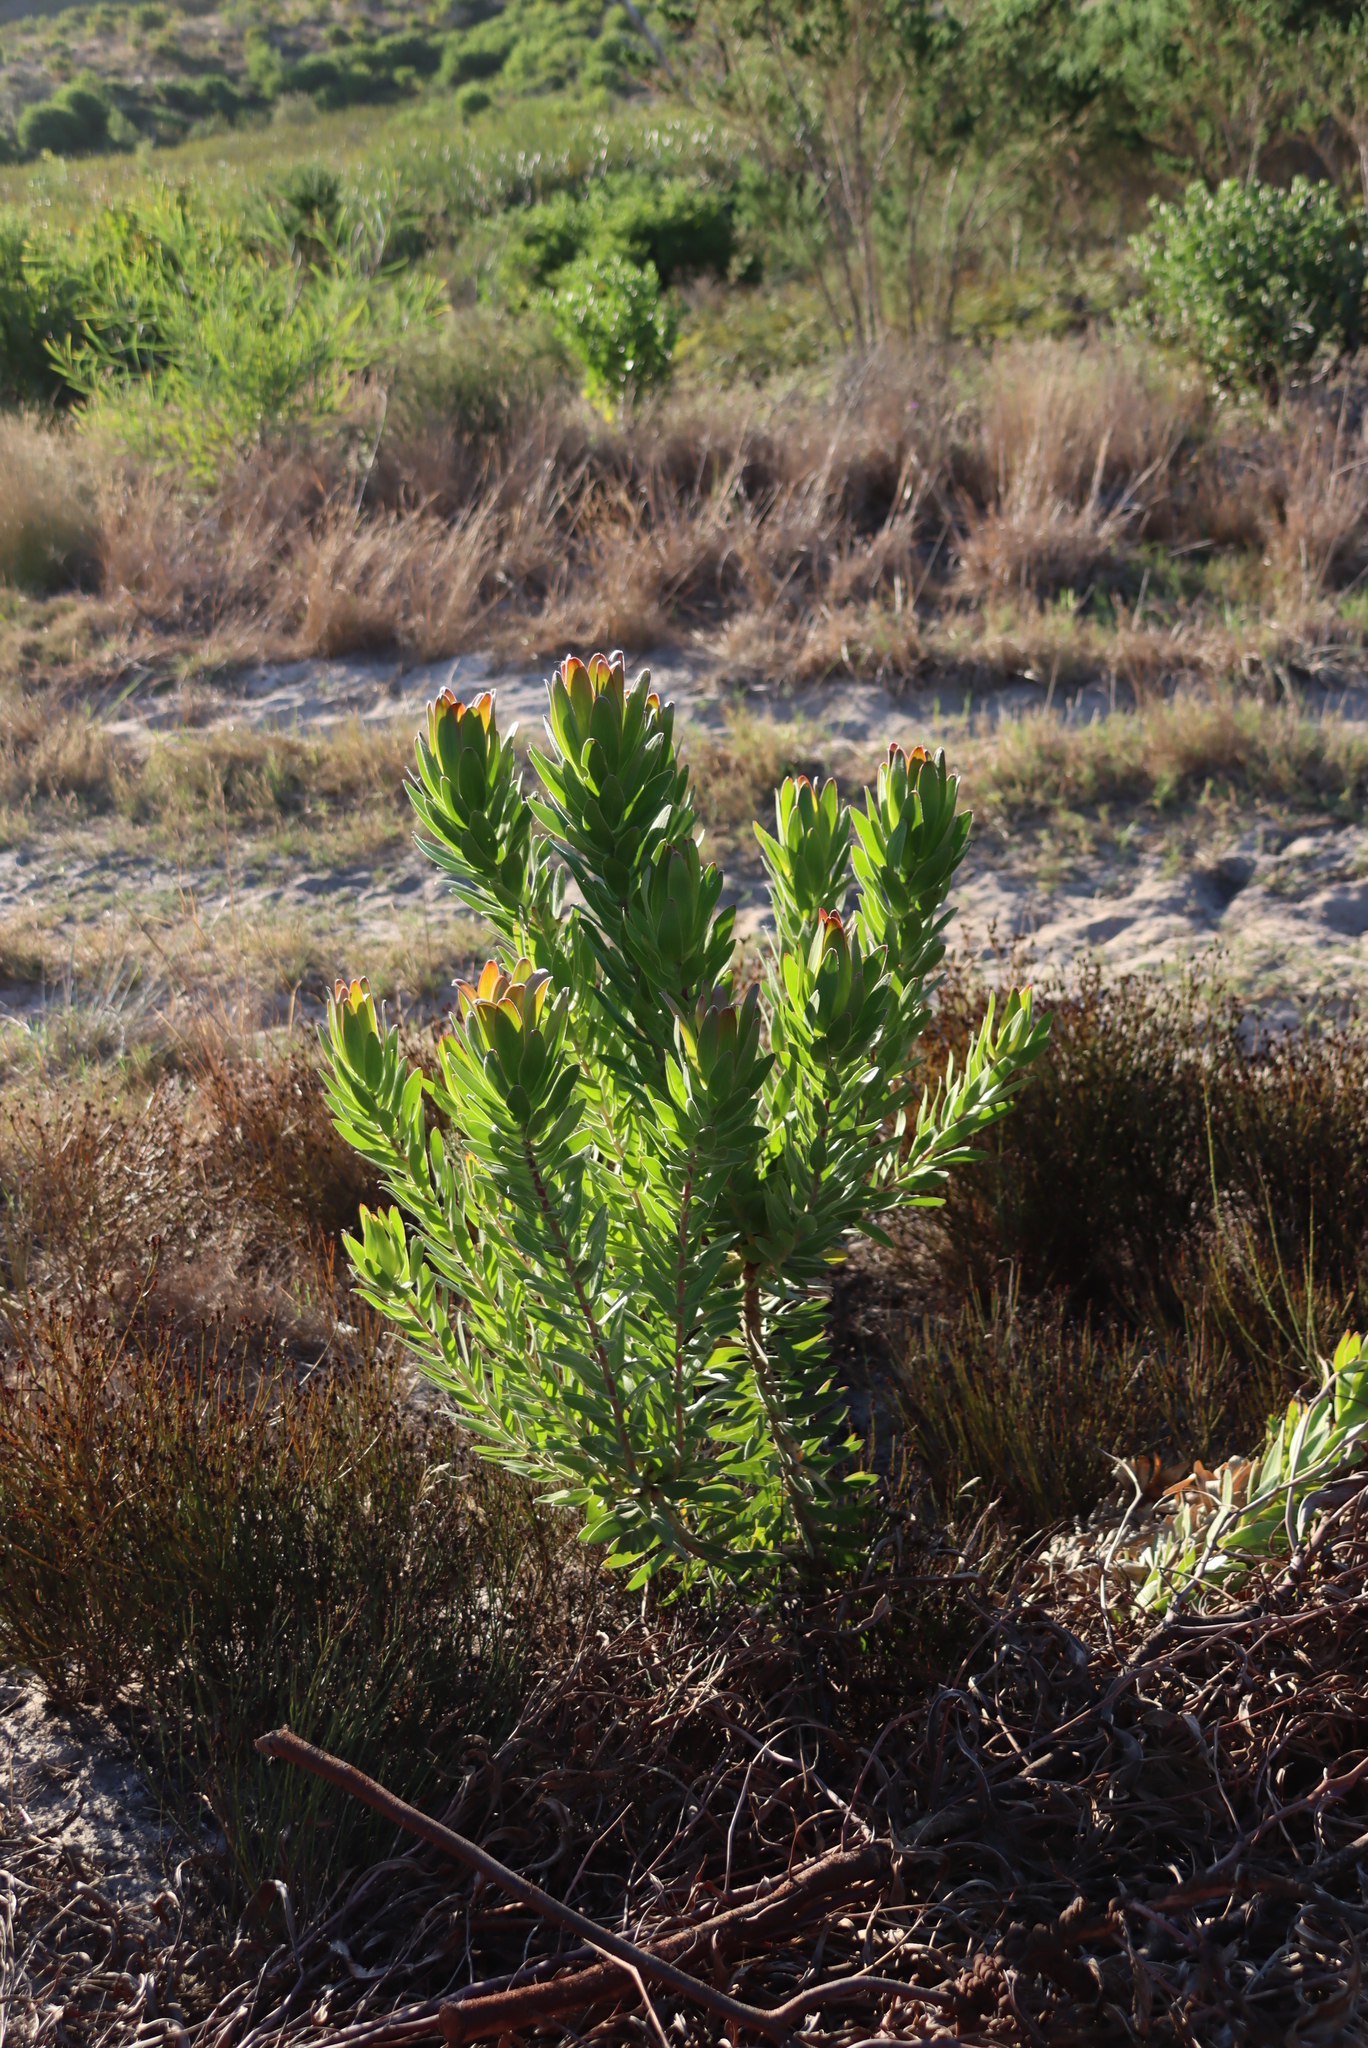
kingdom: Plantae
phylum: Tracheophyta
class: Magnoliopsida
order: Proteales
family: Proteaceae
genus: Leucadendron
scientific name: Leucadendron laureolum
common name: Golden sunshinebush
